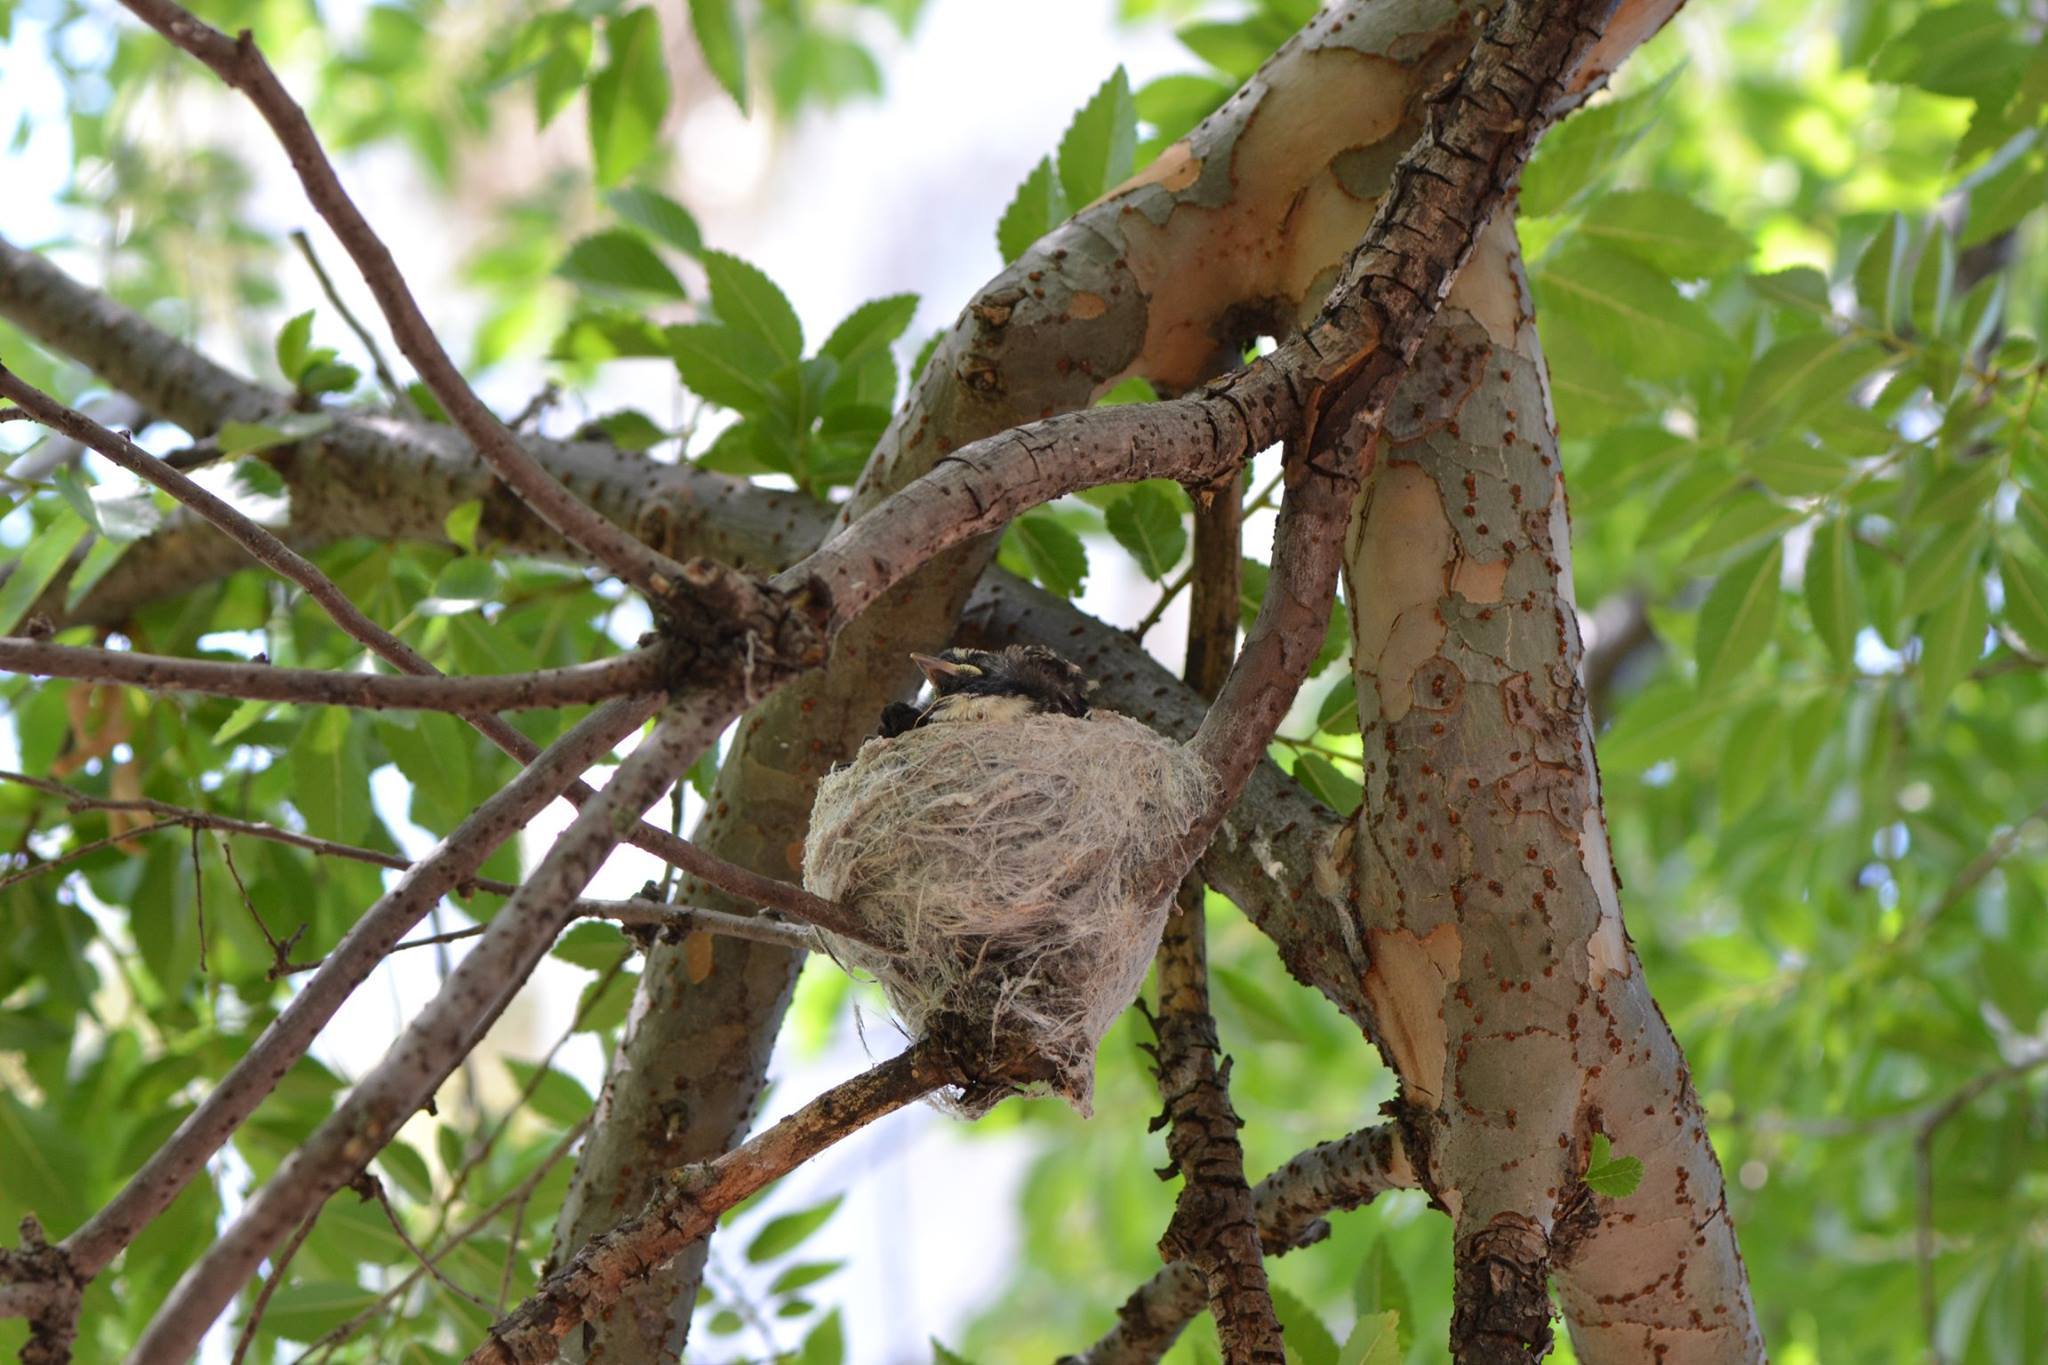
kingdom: Animalia
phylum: Chordata
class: Aves
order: Passeriformes
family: Rhipiduridae
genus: Rhipidura
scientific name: Rhipidura leucophrys
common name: Willie wagtail
